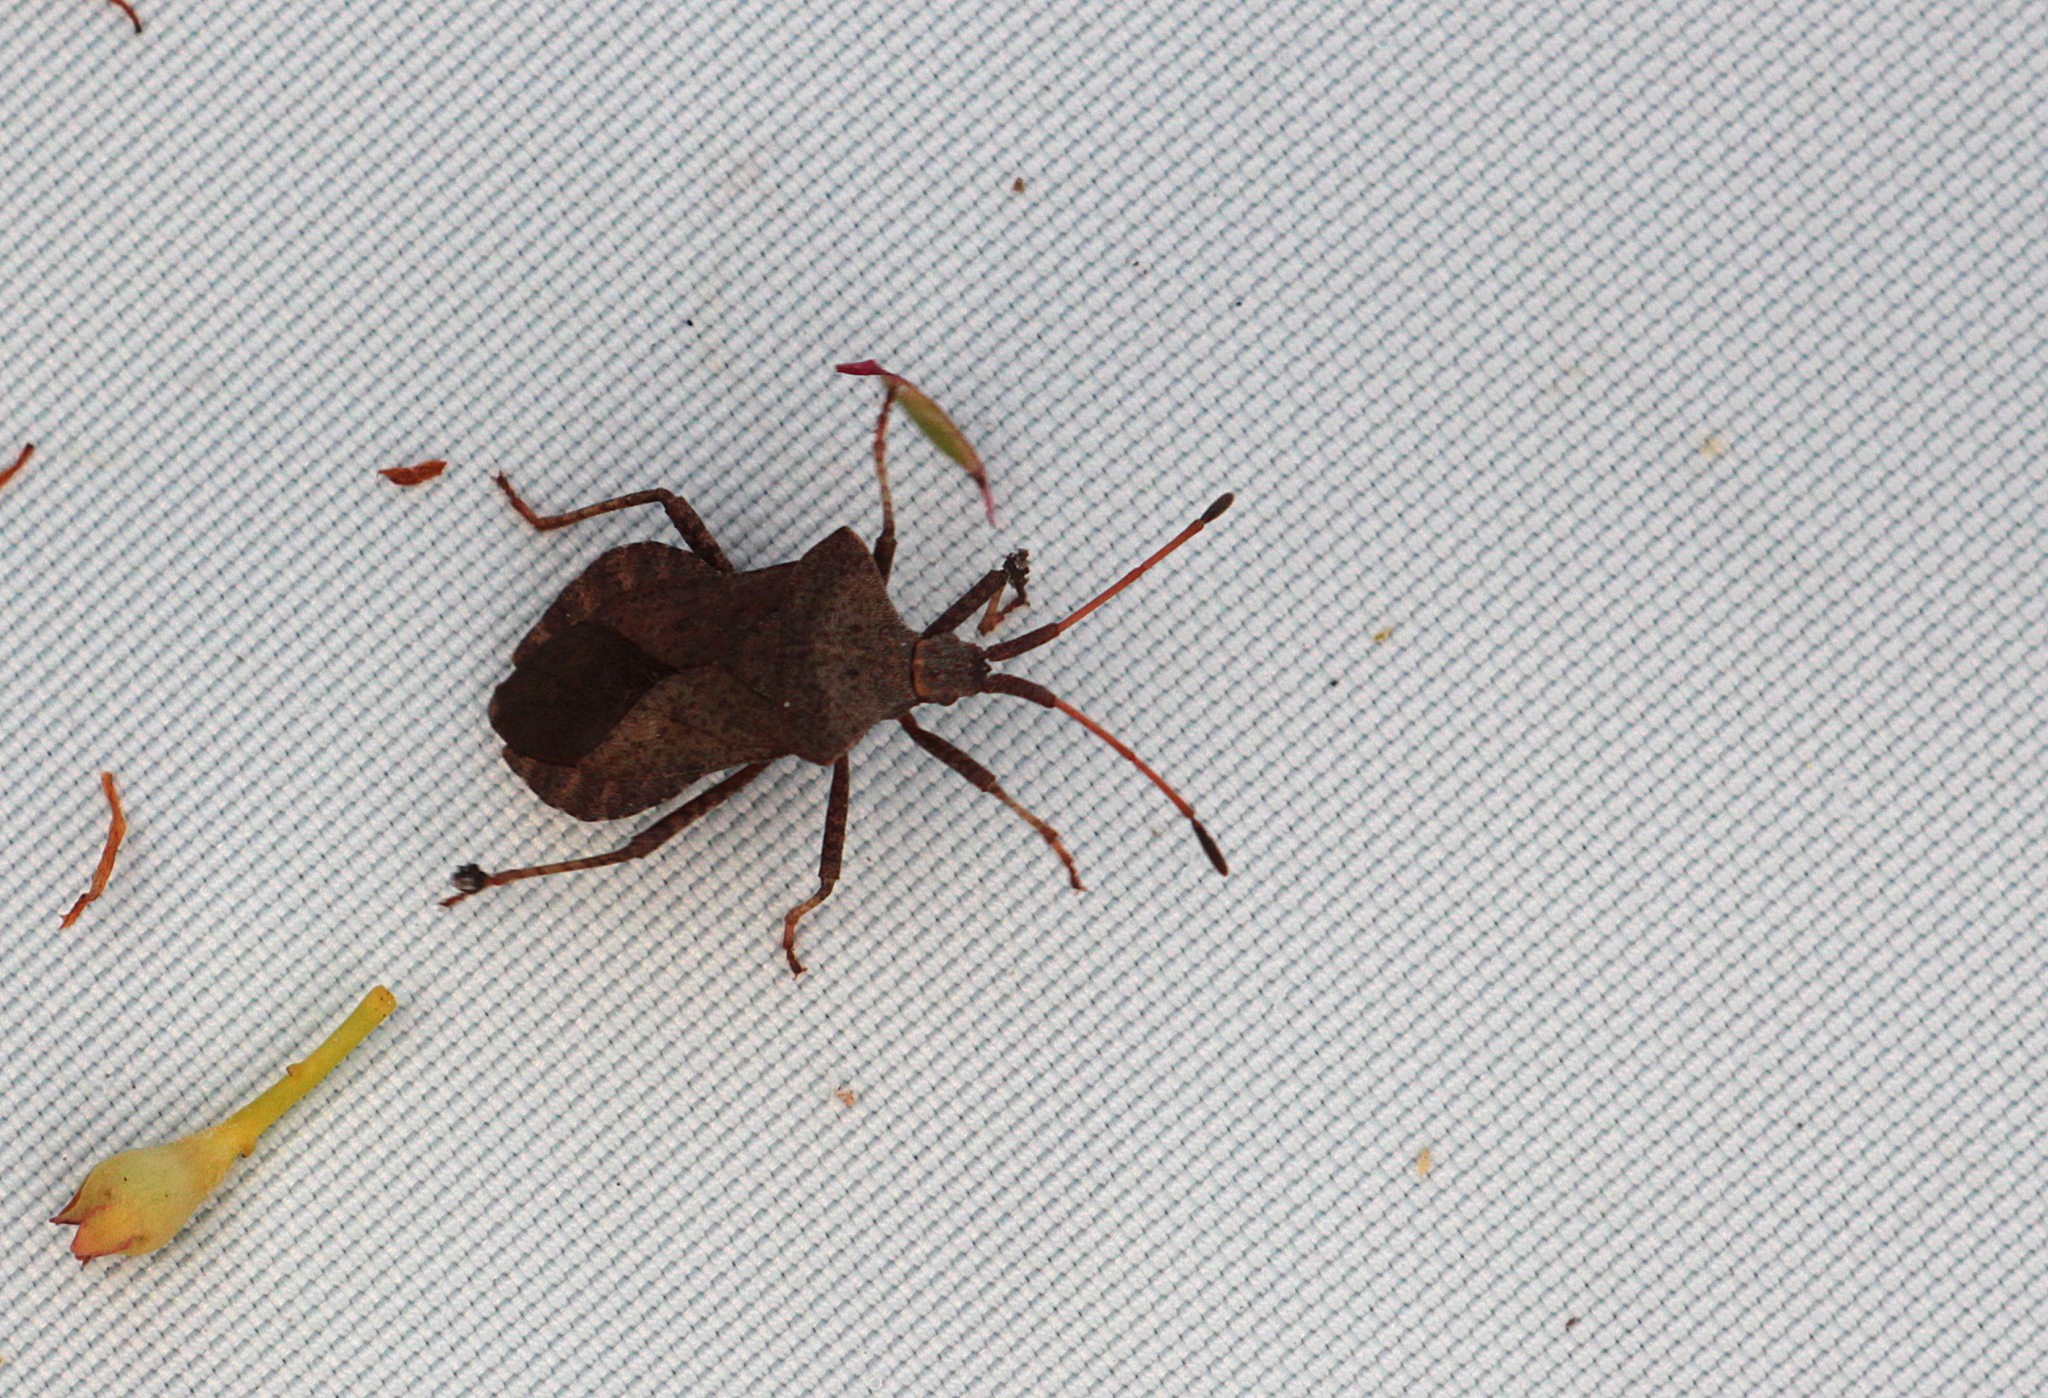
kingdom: Animalia
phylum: Arthropoda
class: Insecta
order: Hemiptera
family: Coreidae
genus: Coreus
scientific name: Coreus marginatus
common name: Dock bug
